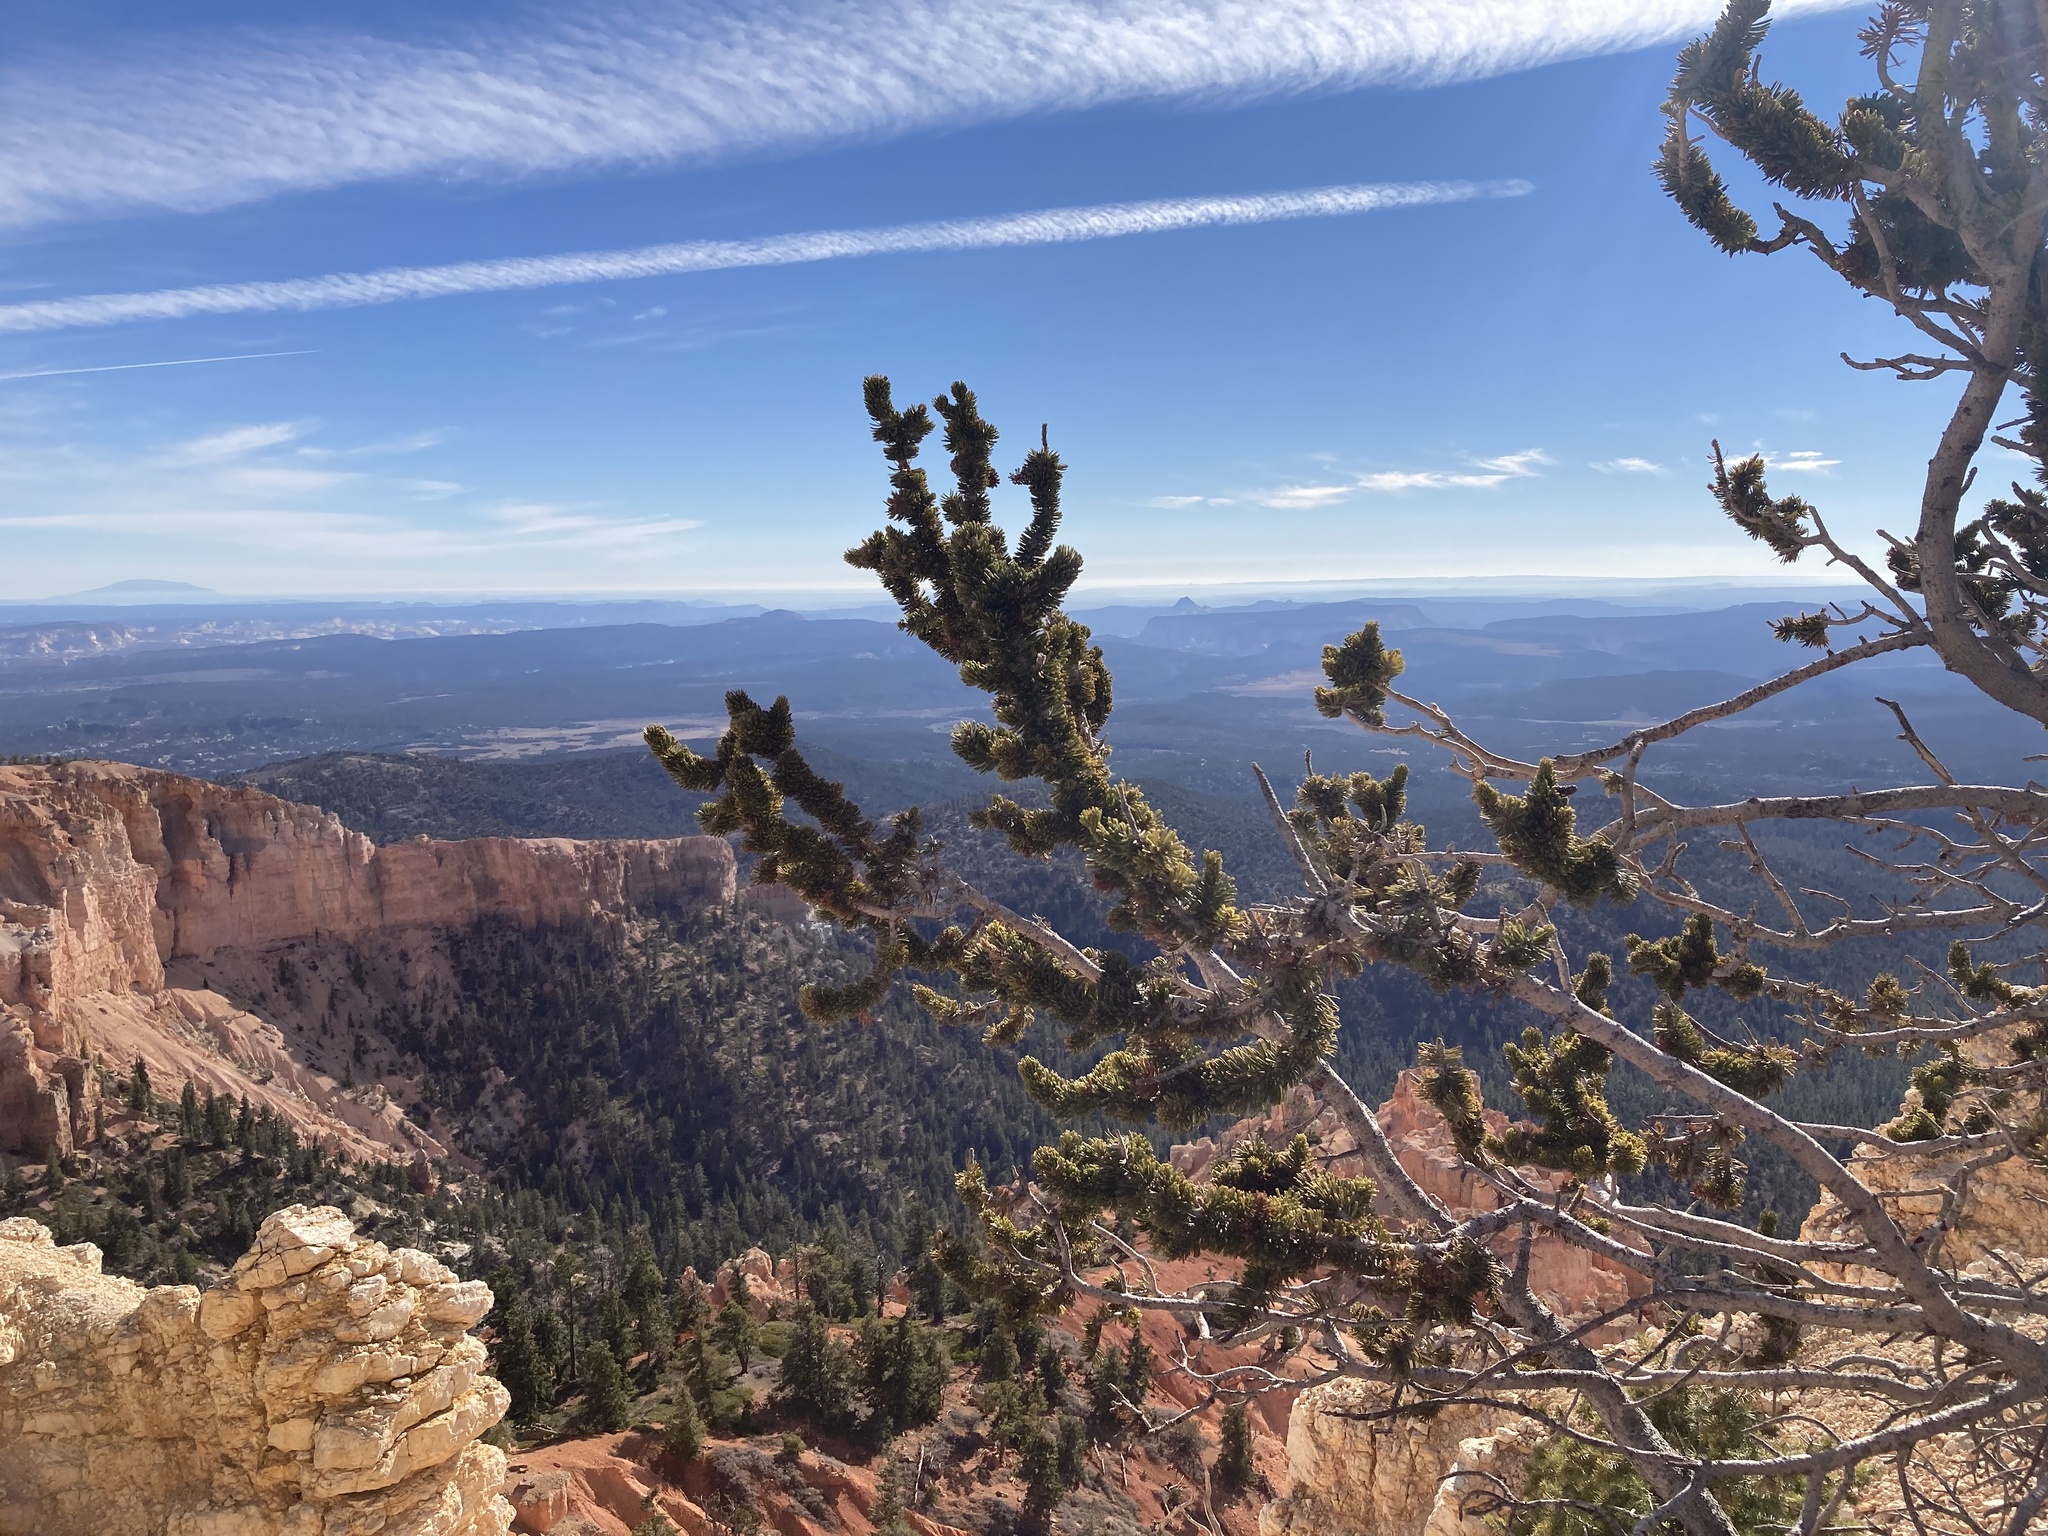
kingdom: Plantae
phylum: Tracheophyta
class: Pinopsida
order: Pinales
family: Pinaceae
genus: Pinus
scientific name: Pinus longaeva
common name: Intermountain bristlecone pine
